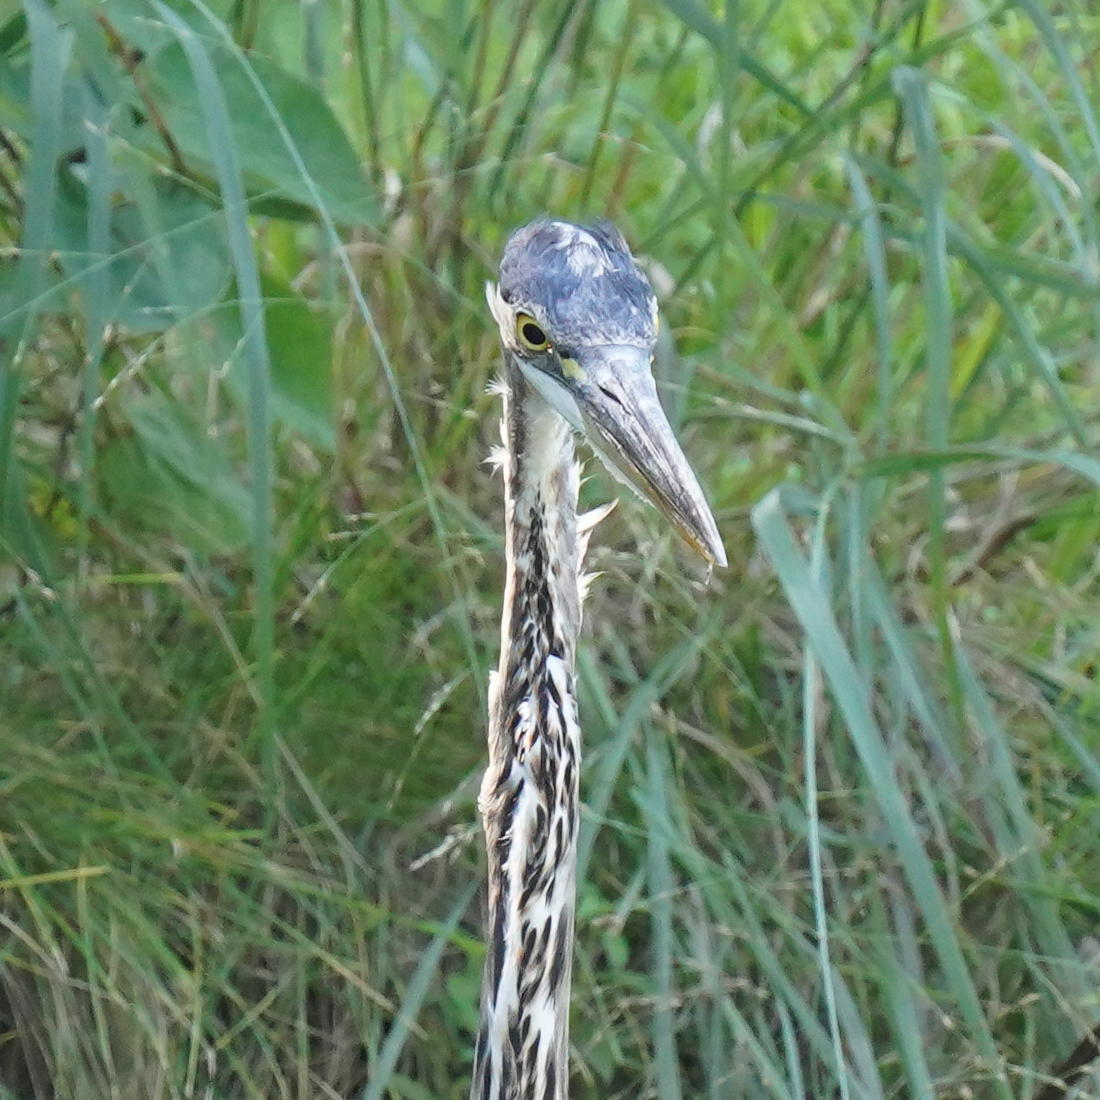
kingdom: Animalia
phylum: Chordata
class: Aves
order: Pelecaniformes
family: Ardeidae
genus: Ardea
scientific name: Ardea herodias
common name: Great blue heron
